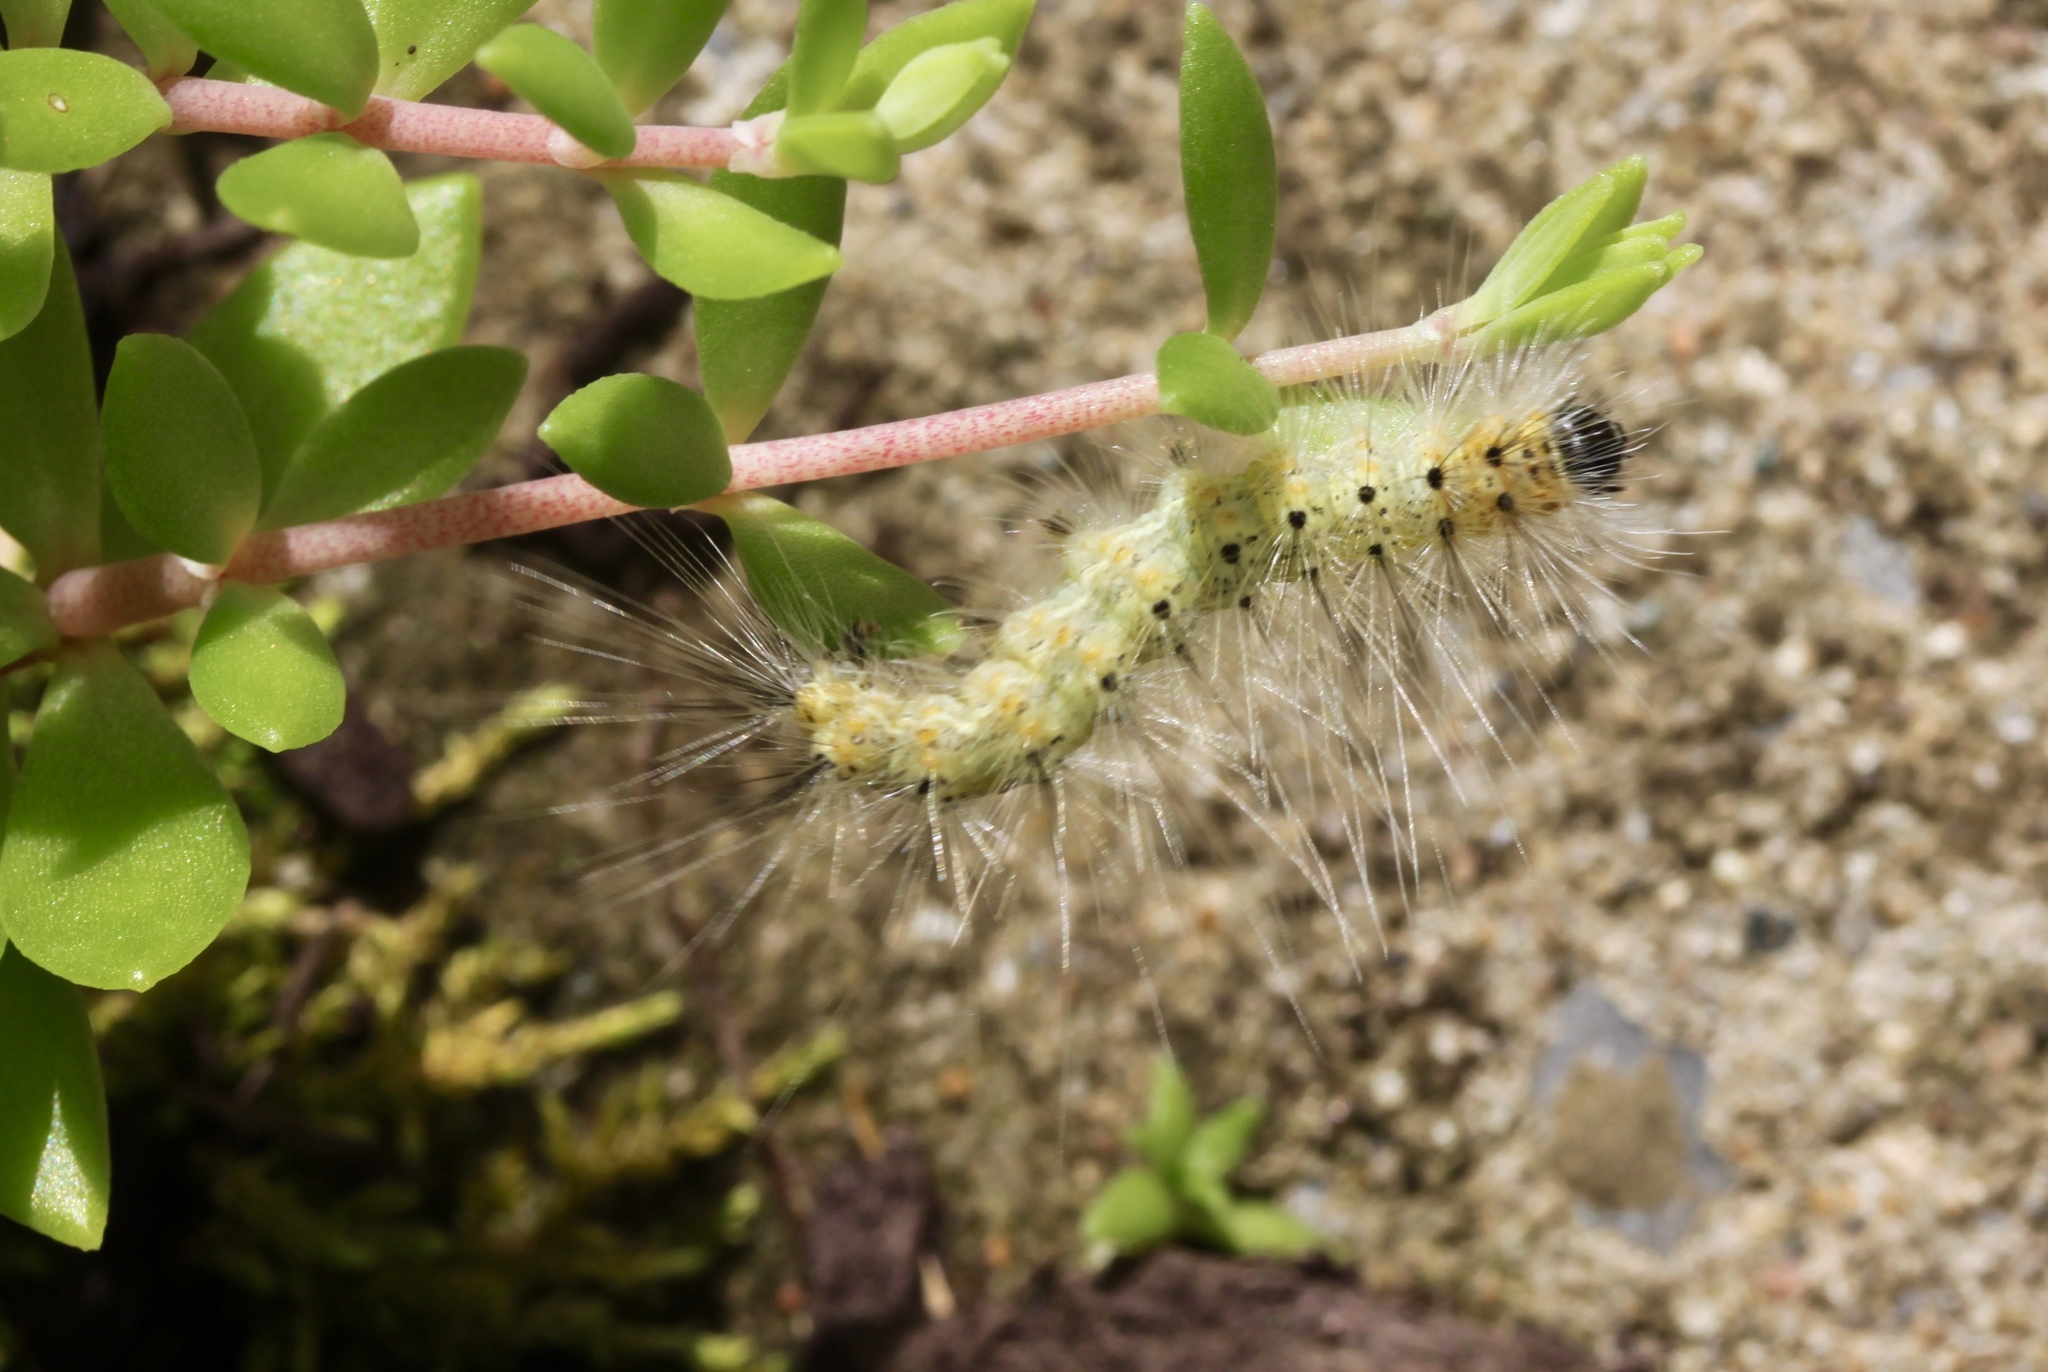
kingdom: Animalia
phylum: Arthropoda
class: Insecta
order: Lepidoptera
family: Erebidae
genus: Hyphantria
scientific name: Hyphantria cunea
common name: American white moth
